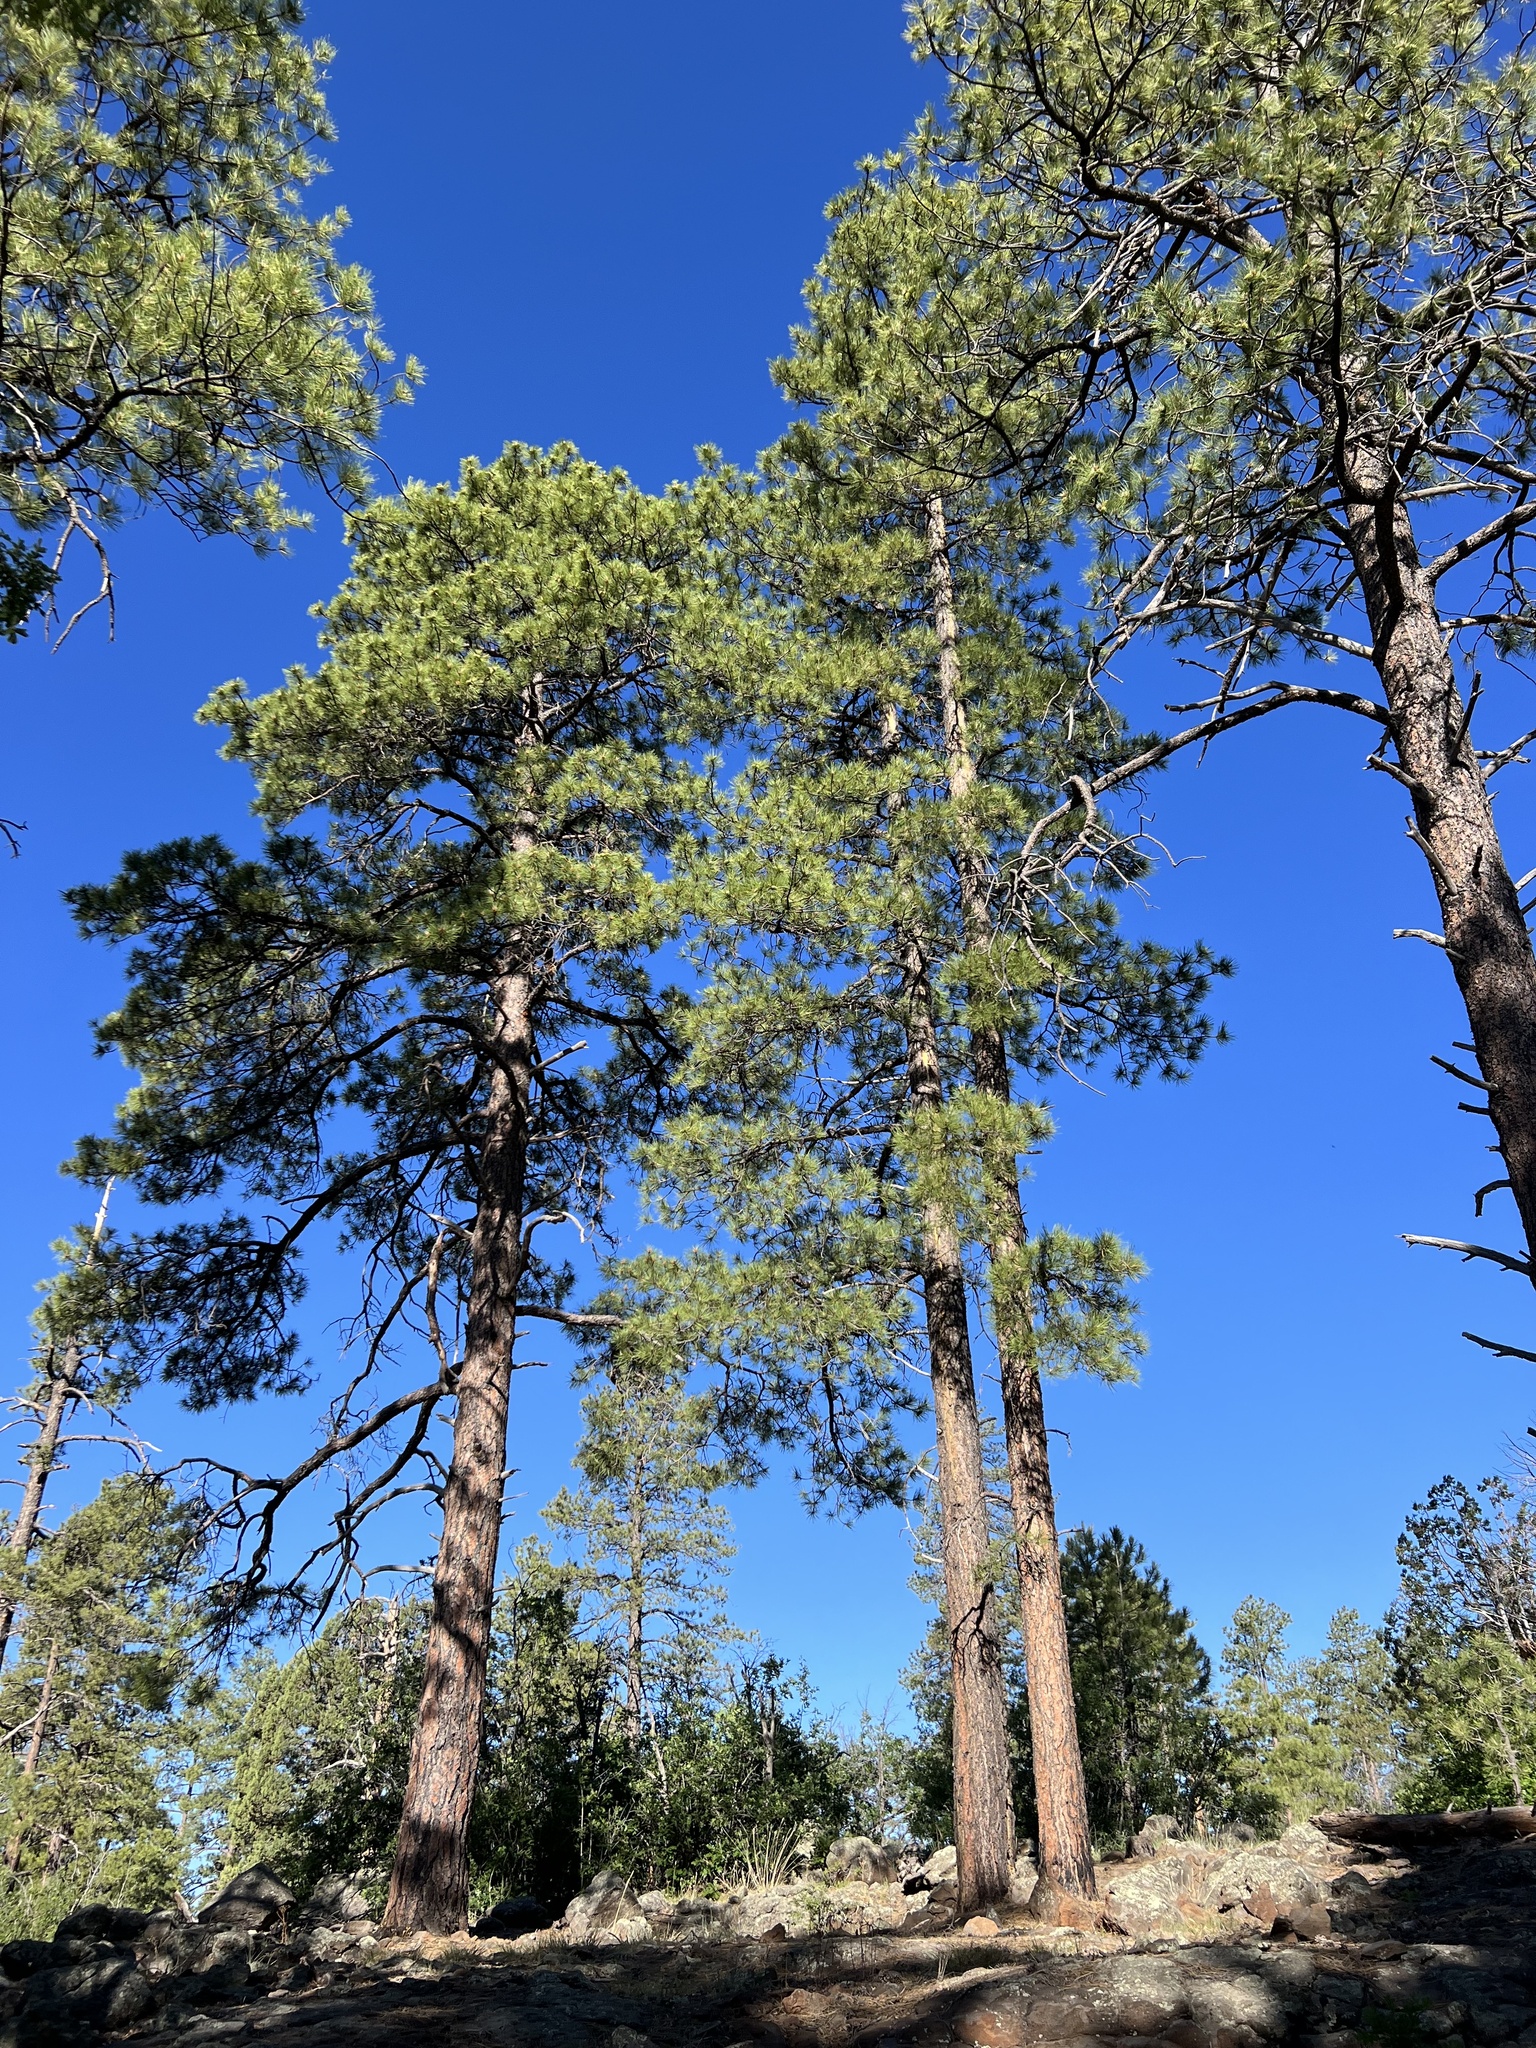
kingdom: Plantae
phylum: Tracheophyta
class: Pinopsida
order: Pinales
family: Pinaceae
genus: Pinus
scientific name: Pinus ponderosa
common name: Western yellow-pine
